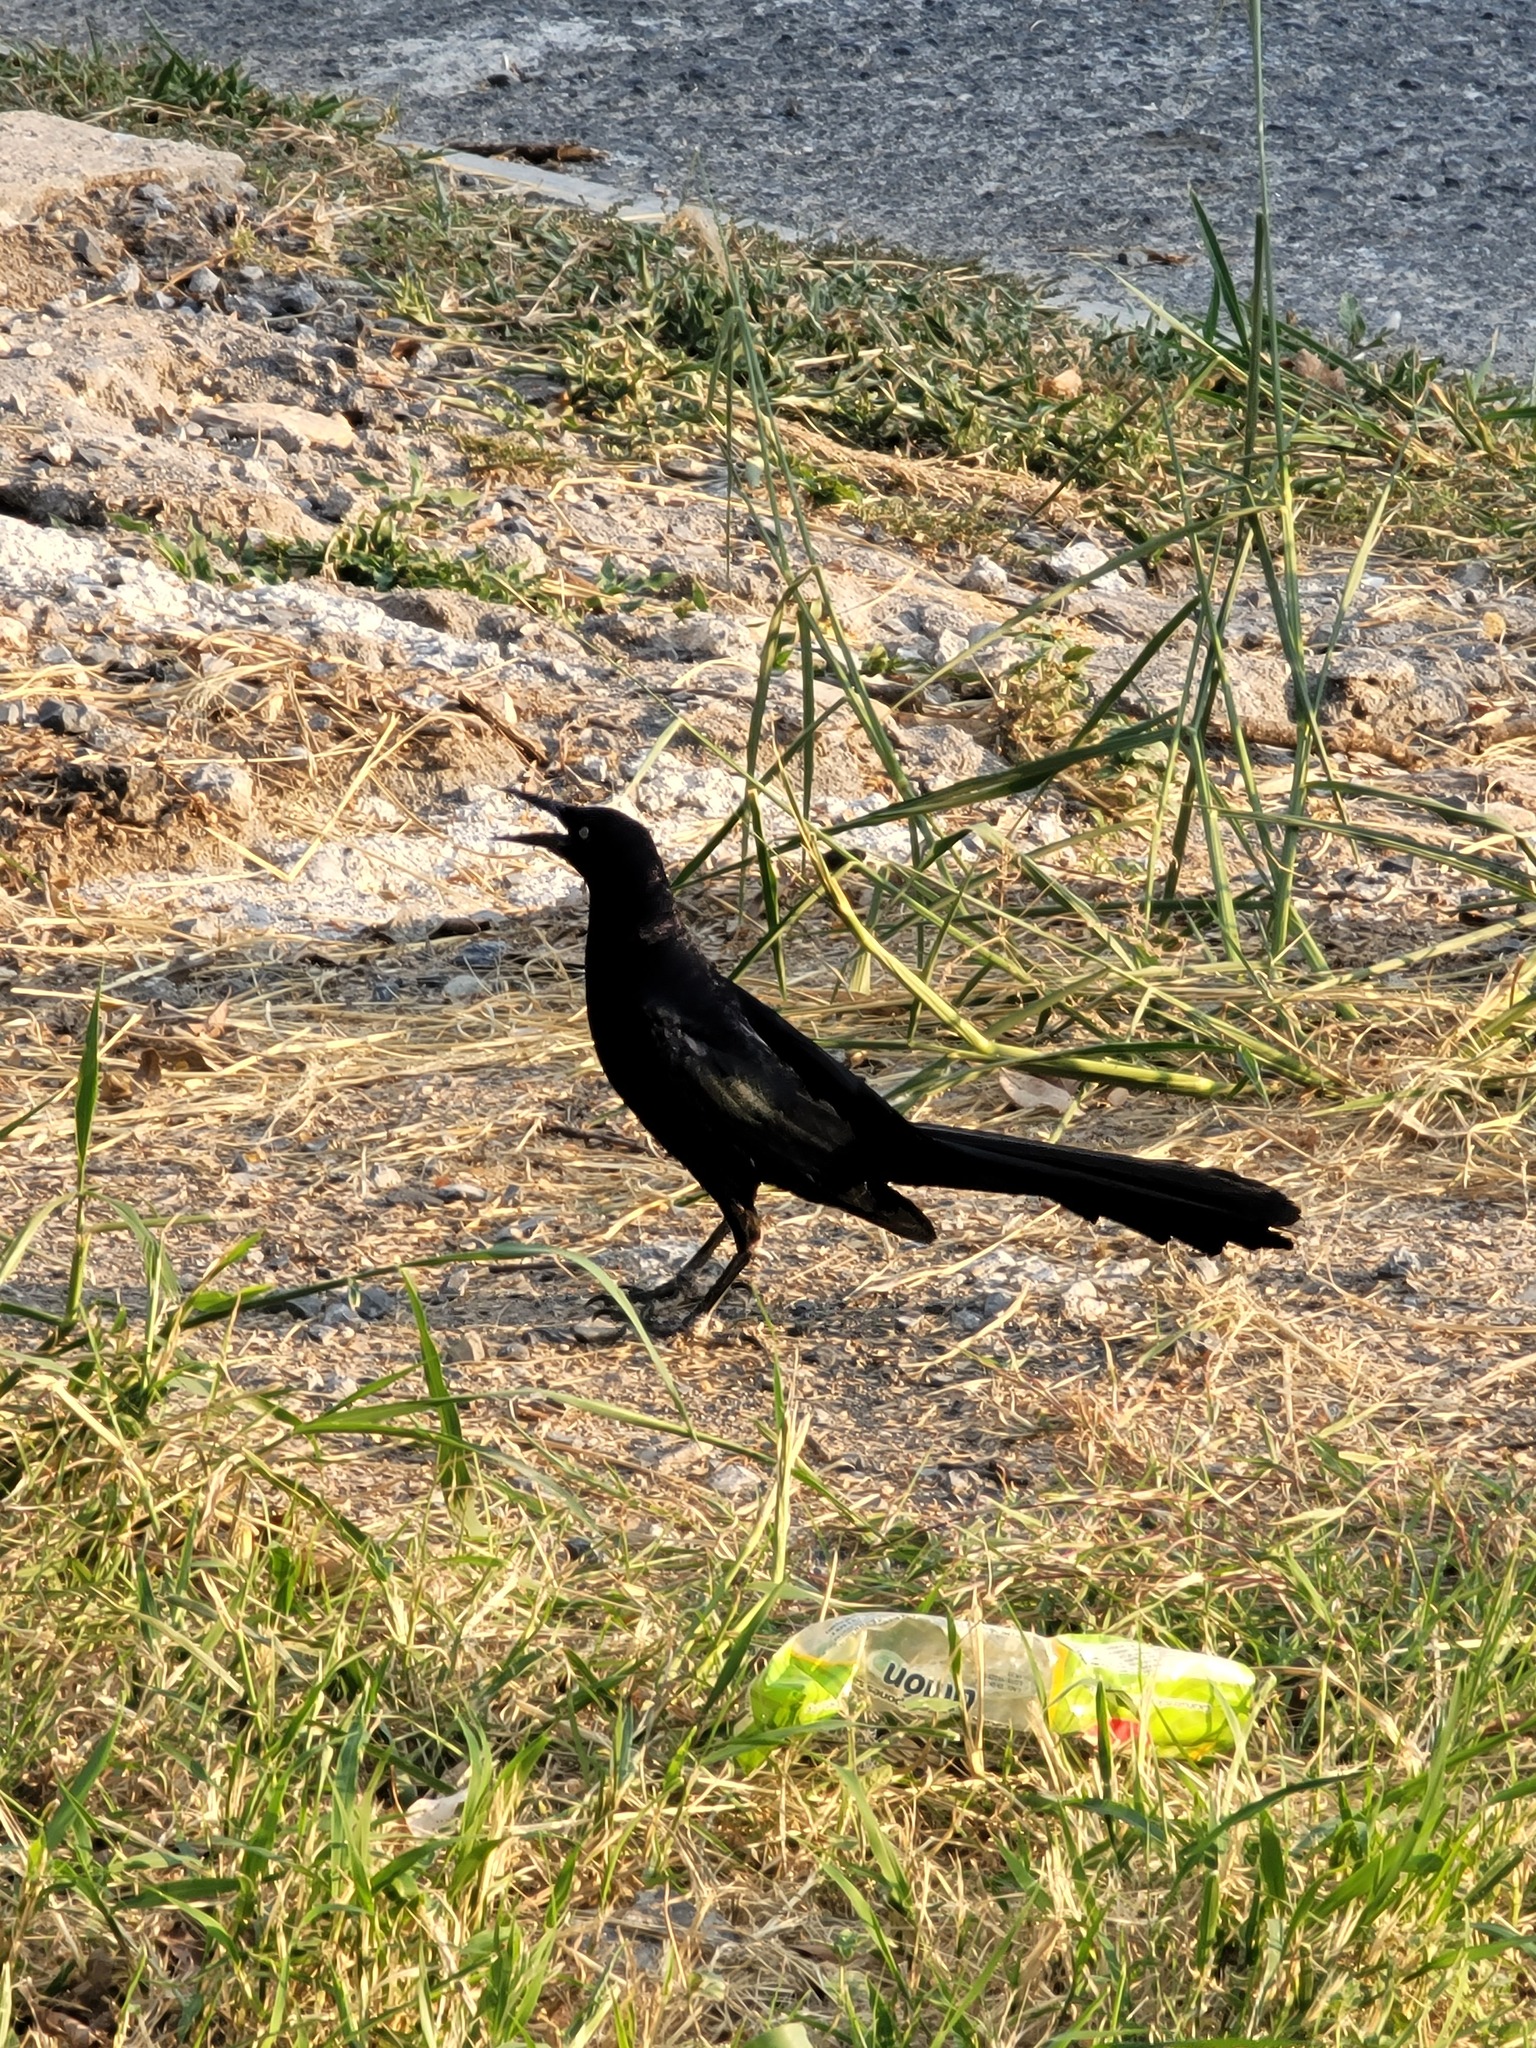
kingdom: Animalia
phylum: Chordata
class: Aves
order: Passeriformes
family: Icteridae
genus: Quiscalus
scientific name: Quiscalus mexicanus
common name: Great-tailed grackle
